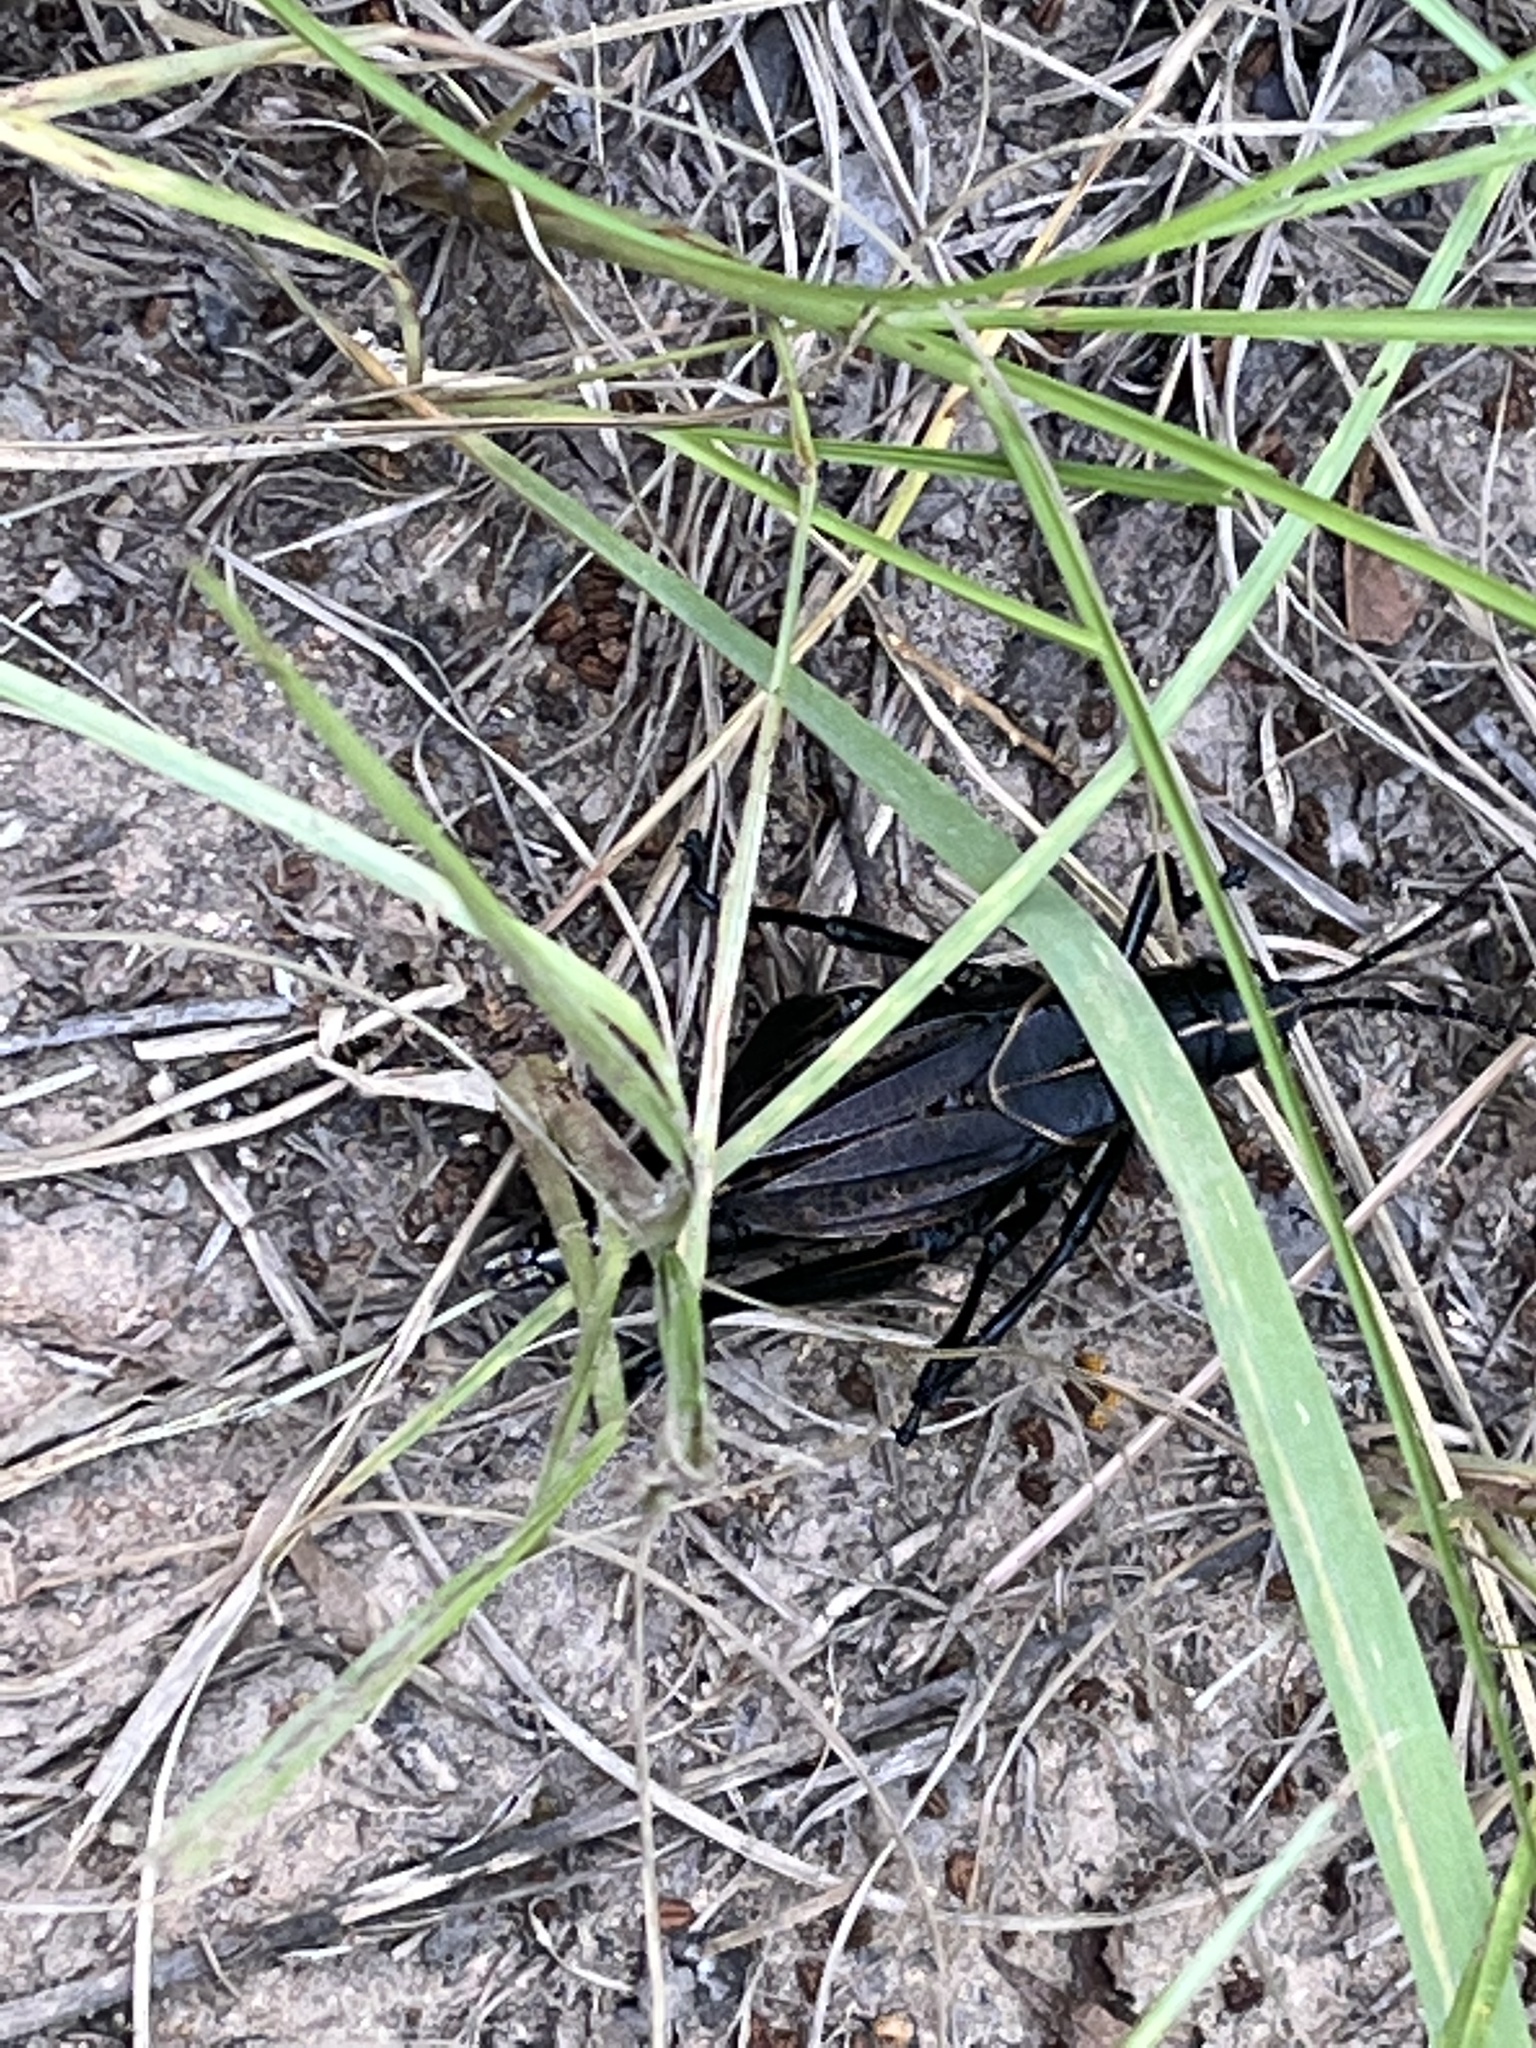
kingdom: Animalia
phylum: Arthropoda
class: Insecta
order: Orthoptera
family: Romaleidae
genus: Romalea
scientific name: Romalea microptera
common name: Eastern lubber grasshopper
